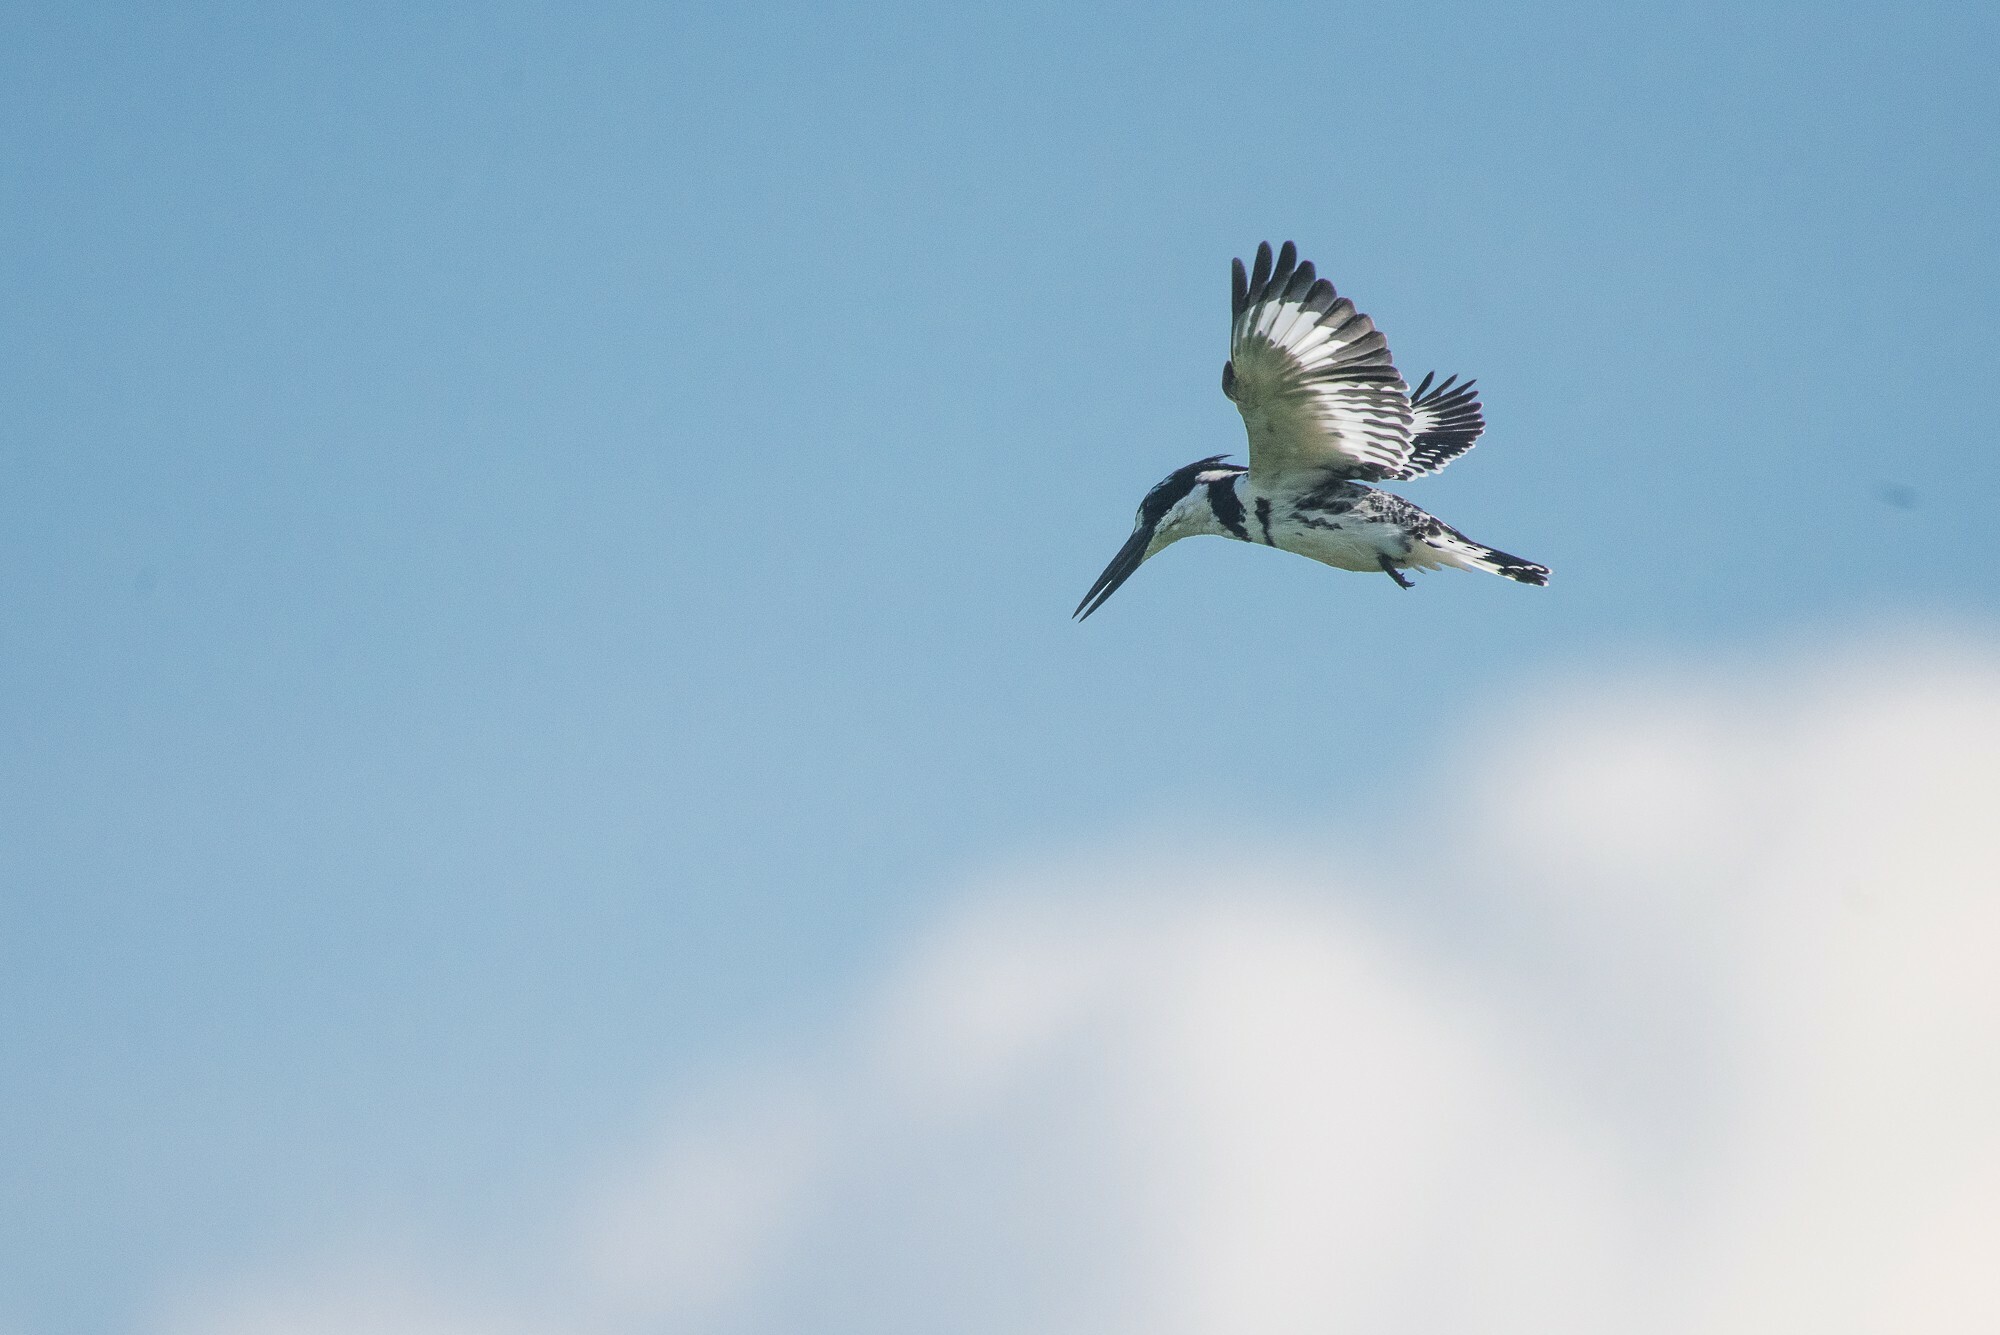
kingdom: Animalia
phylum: Chordata
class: Aves
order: Coraciiformes
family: Alcedinidae
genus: Ceryle
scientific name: Ceryle rudis
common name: Pied kingfisher
